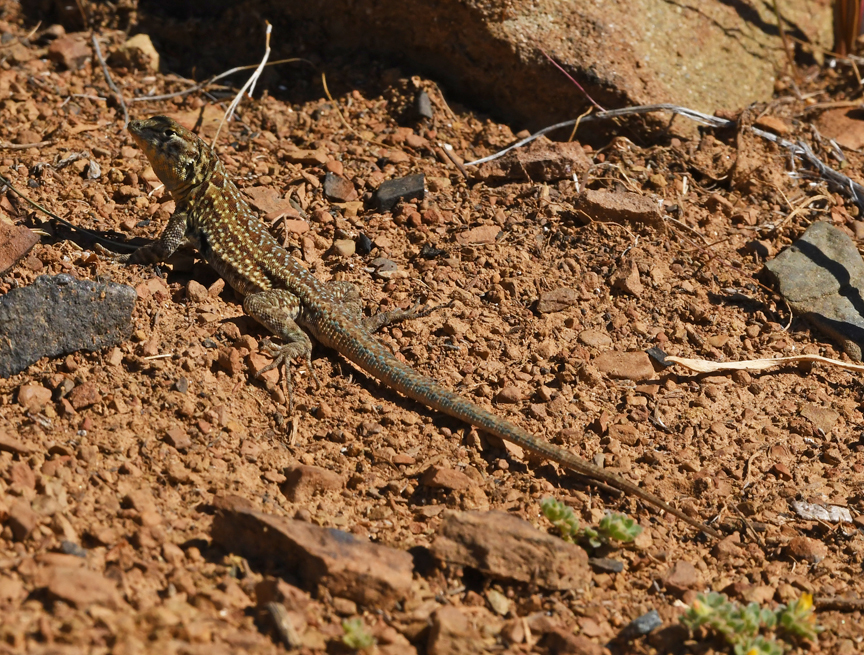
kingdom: Animalia
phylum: Chordata
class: Squamata
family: Phrynosomatidae
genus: Uta
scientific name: Uta stansburiana
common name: Side-blotched lizard
